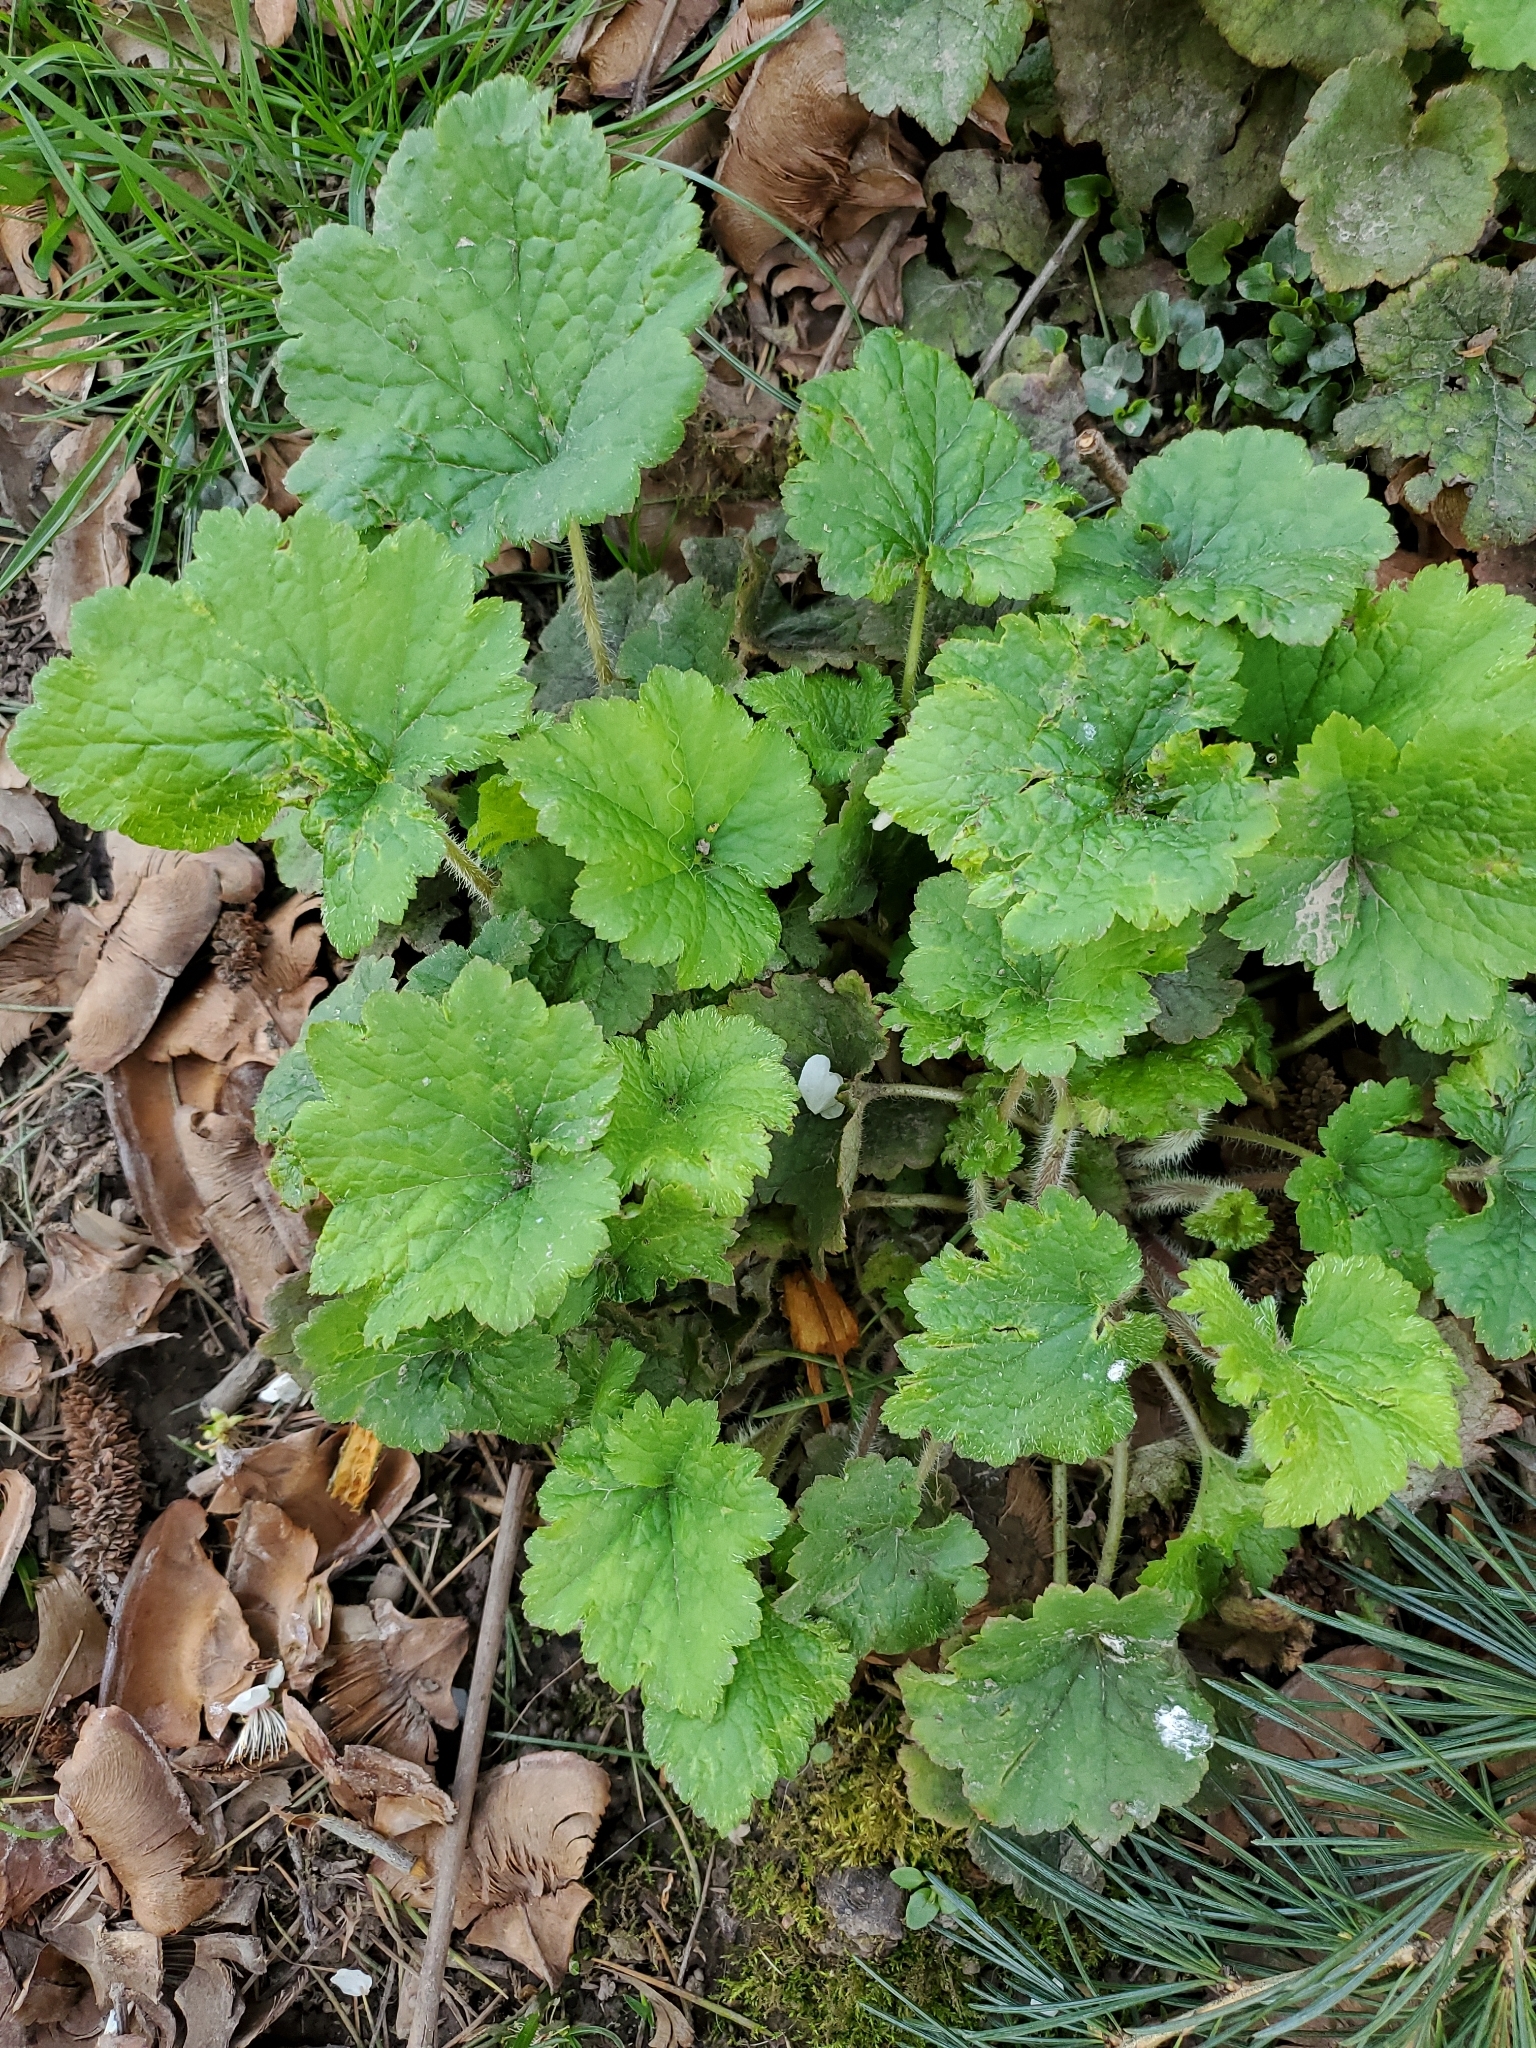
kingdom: Plantae
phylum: Tracheophyta
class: Magnoliopsida
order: Saxifragales
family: Saxifragaceae
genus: Tellima
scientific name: Tellima grandiflora
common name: Fringecups
